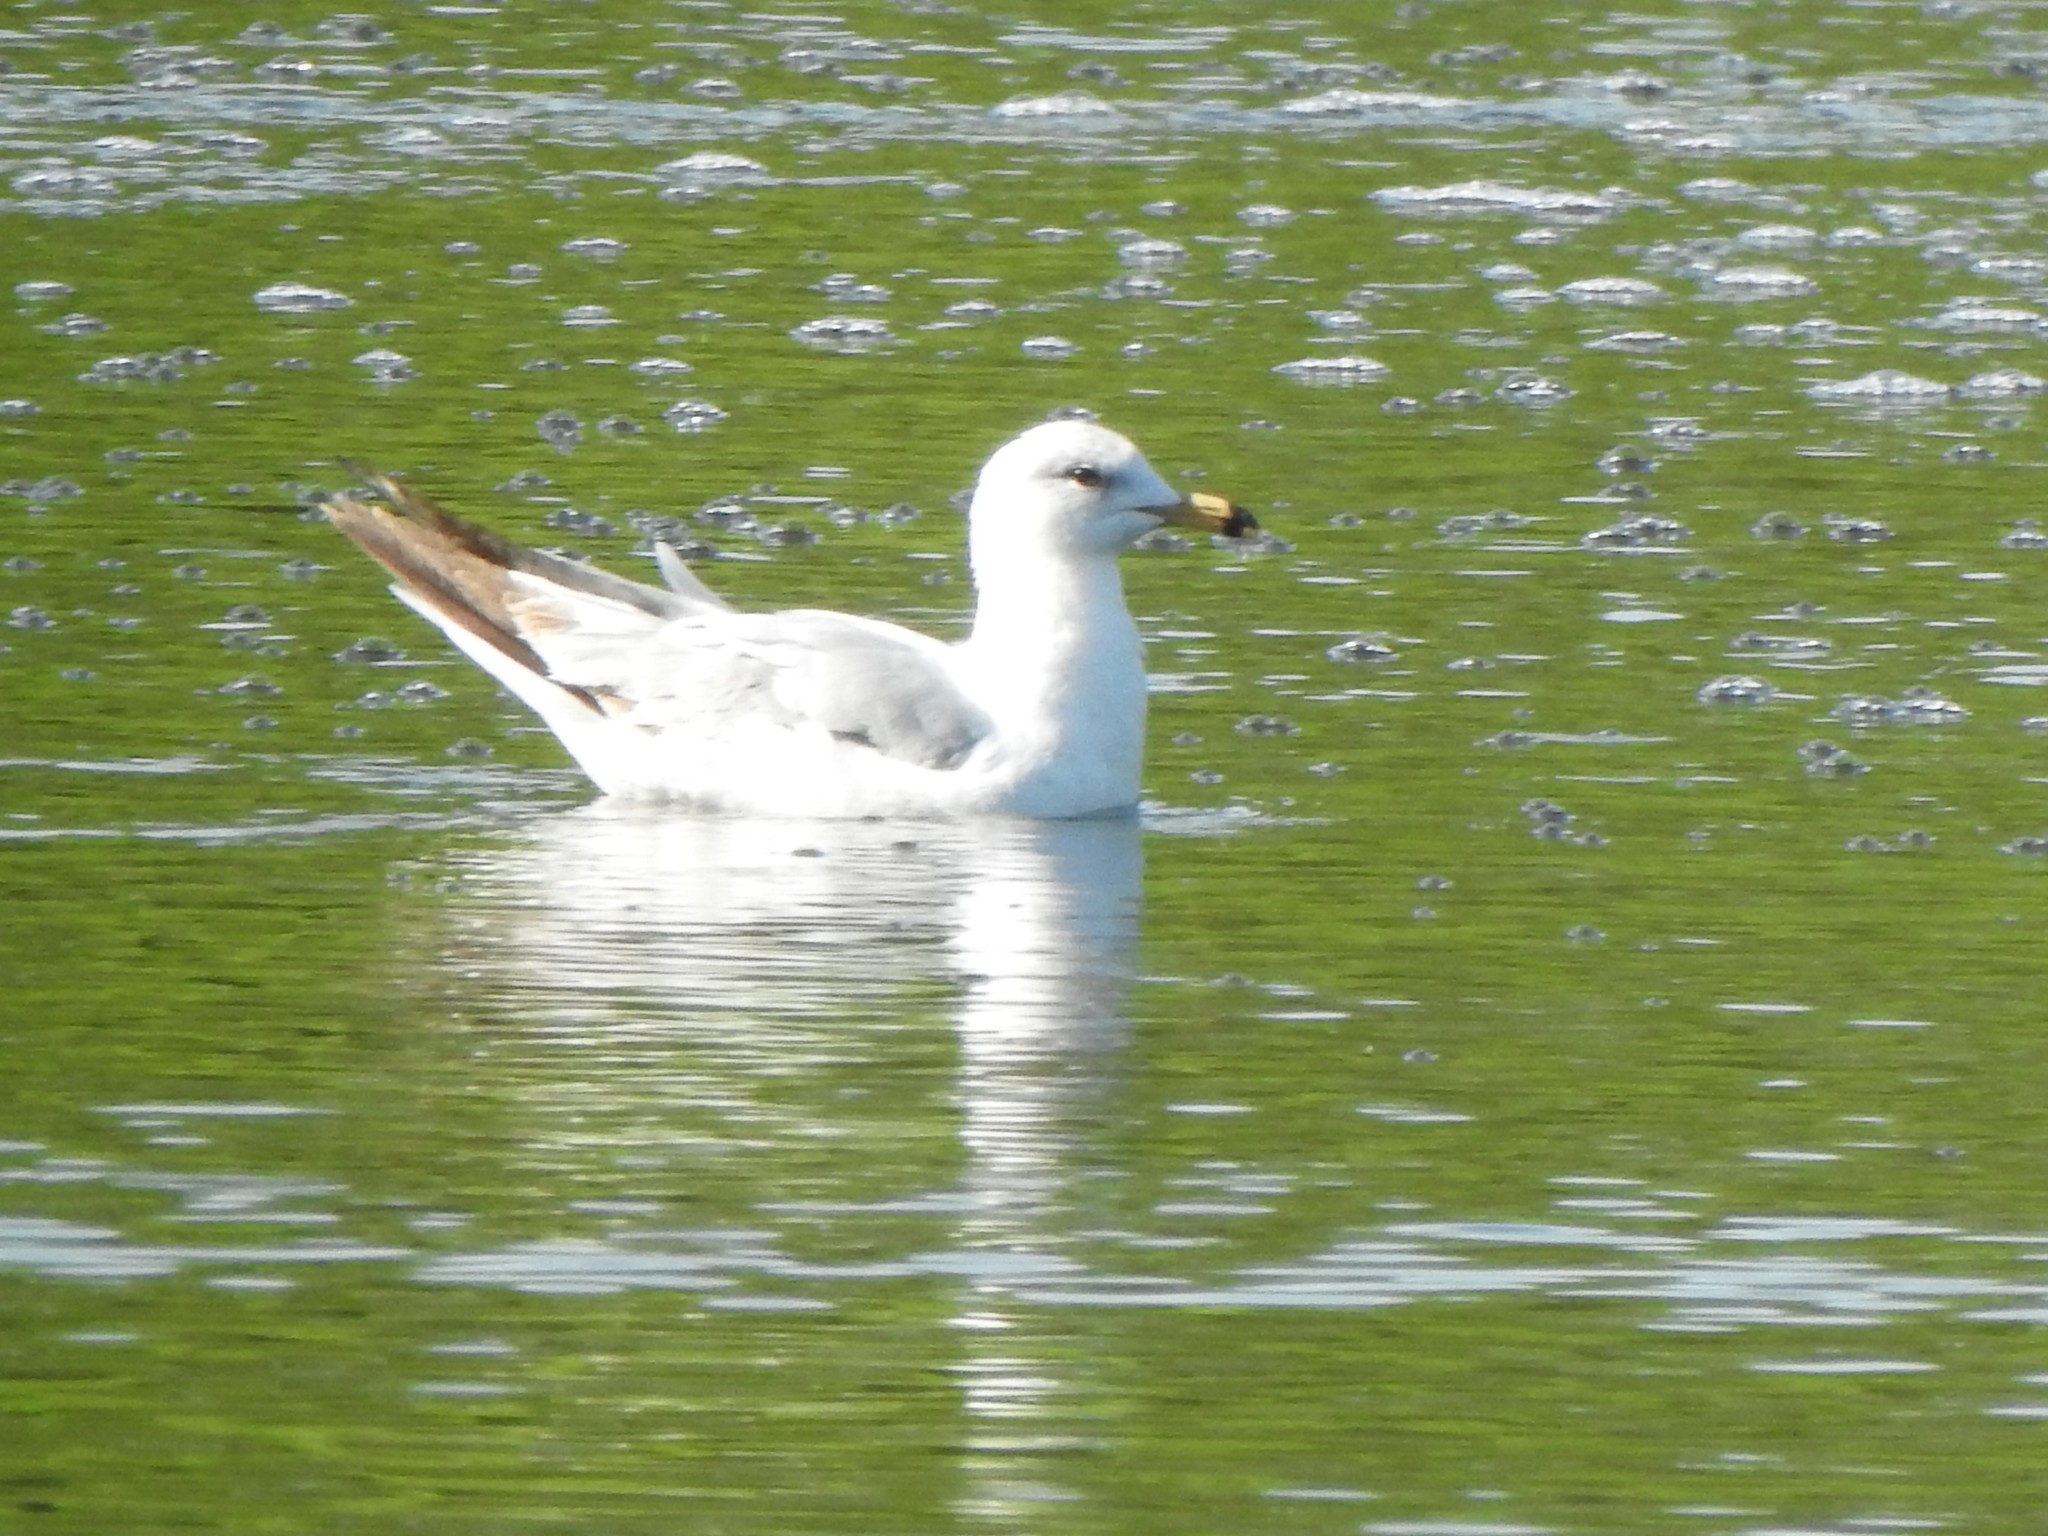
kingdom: Animalia
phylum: Chordata
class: Aves
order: Charadriiformes
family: Laridae
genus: Larus
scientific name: Larus delawarensis
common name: Ring-billed gull
